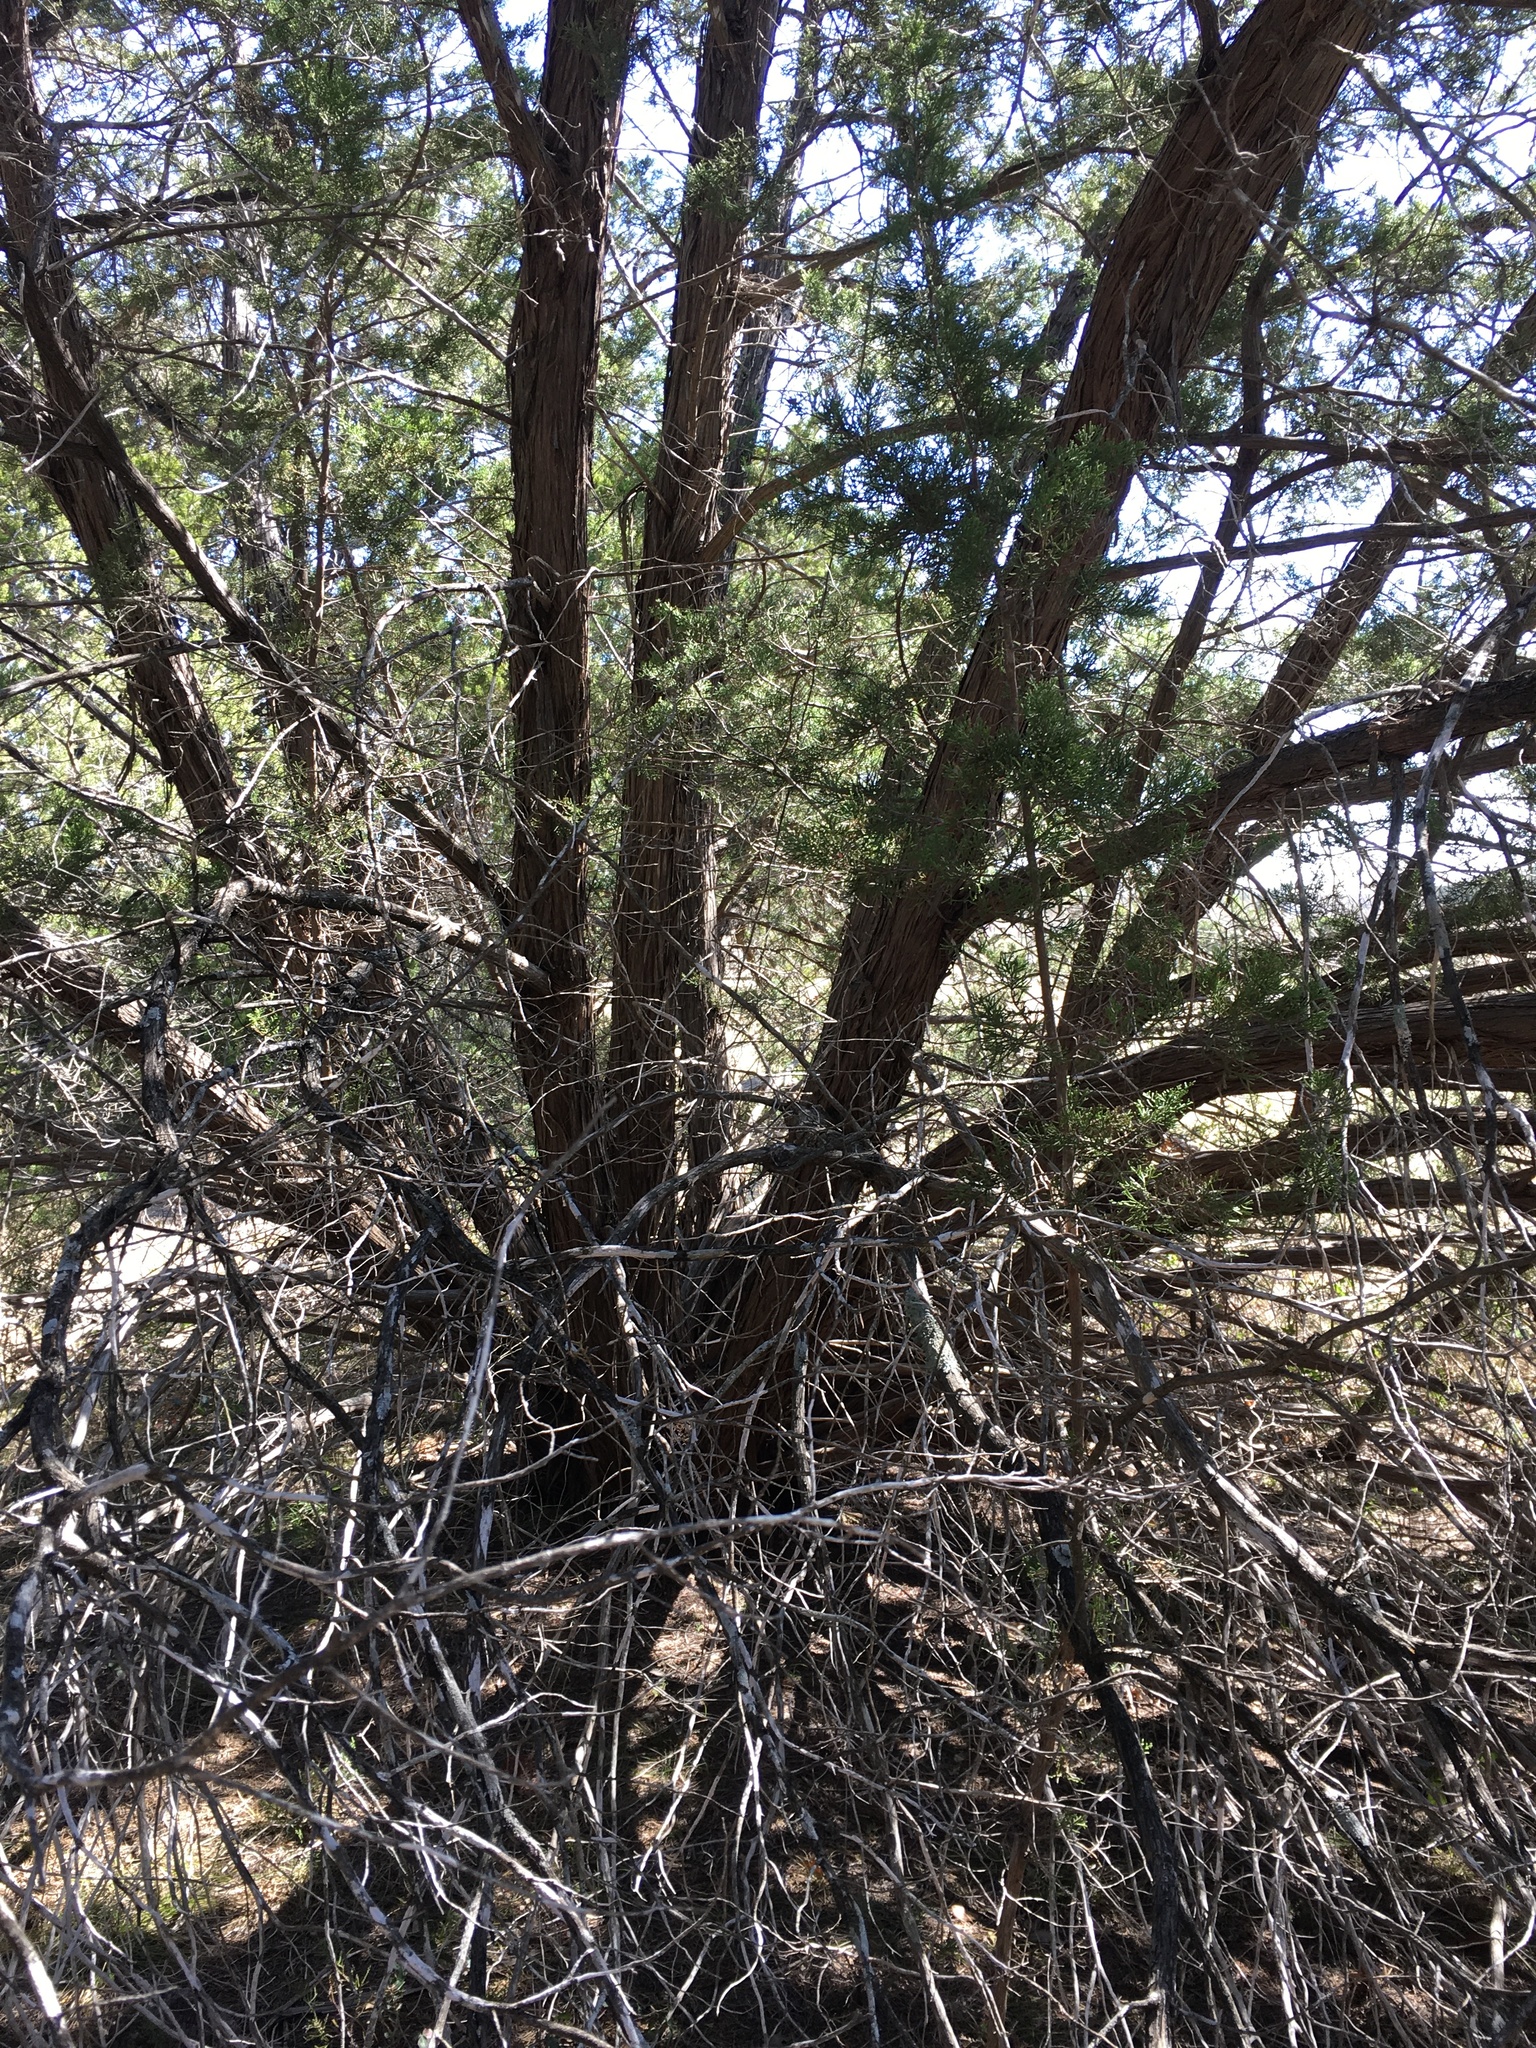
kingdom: Plantae
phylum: Tracheophyta
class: Pinopsida
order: Pinales
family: Cupressaceae
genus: Juniperus
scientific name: Juniperus ashei
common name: Mexican juniper
